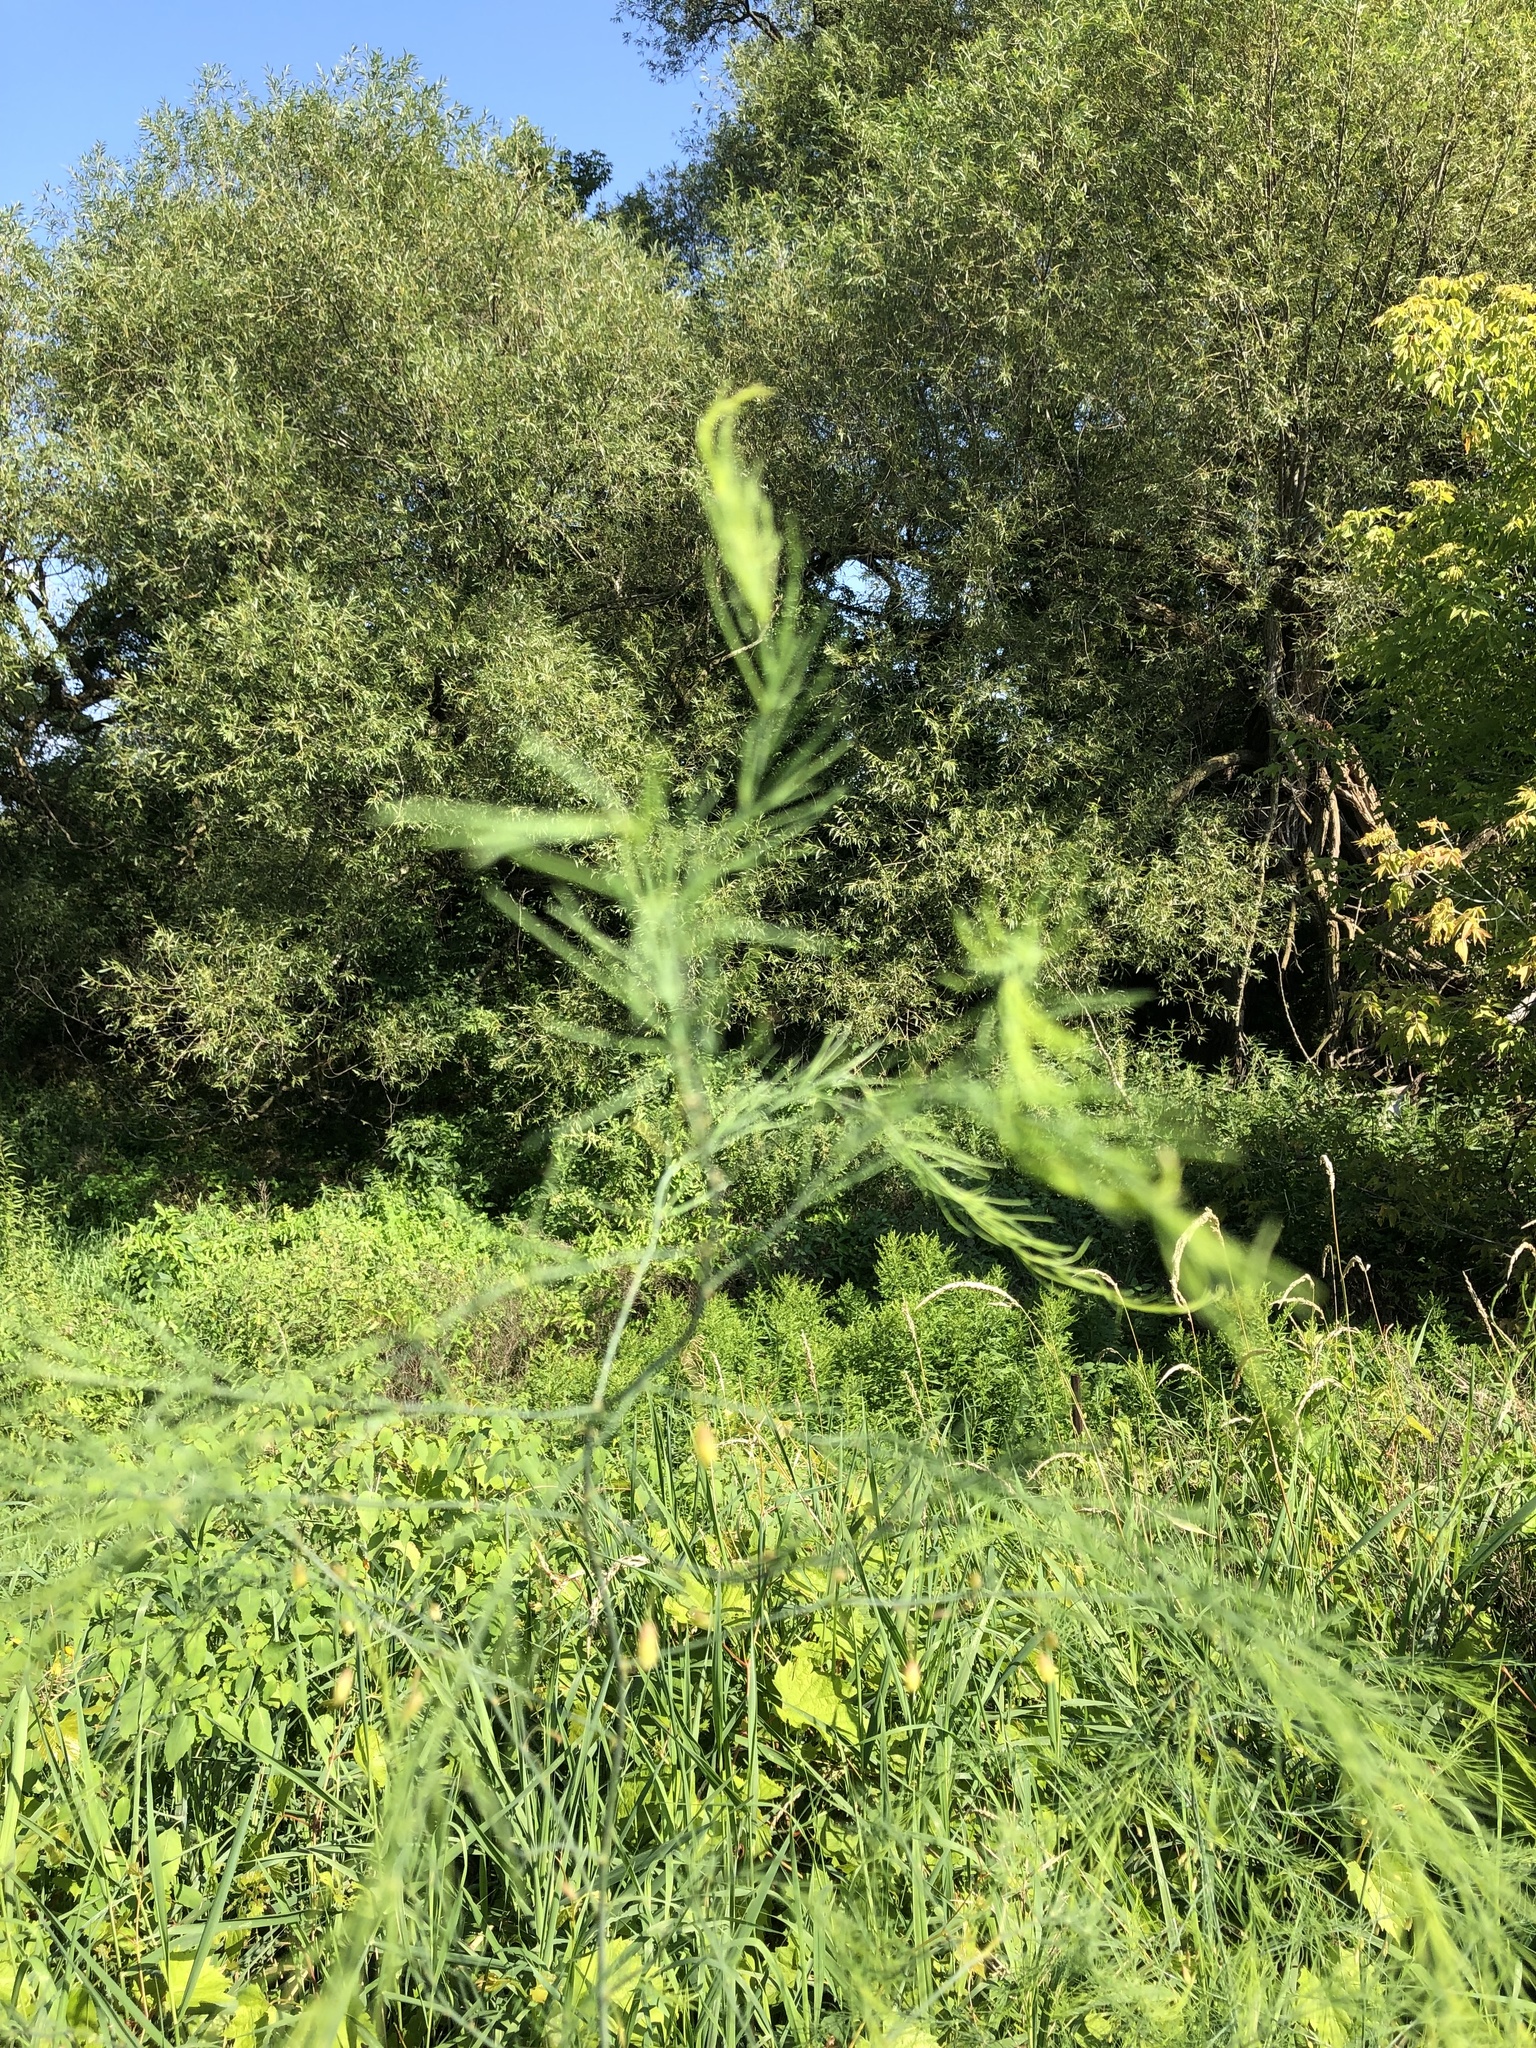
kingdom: Plantae
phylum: Tracheophyta
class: Liliopsida
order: Asparagales
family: Asparagaceae
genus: Asparagus
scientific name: Asparagus officinalis
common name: Garden asparagus
